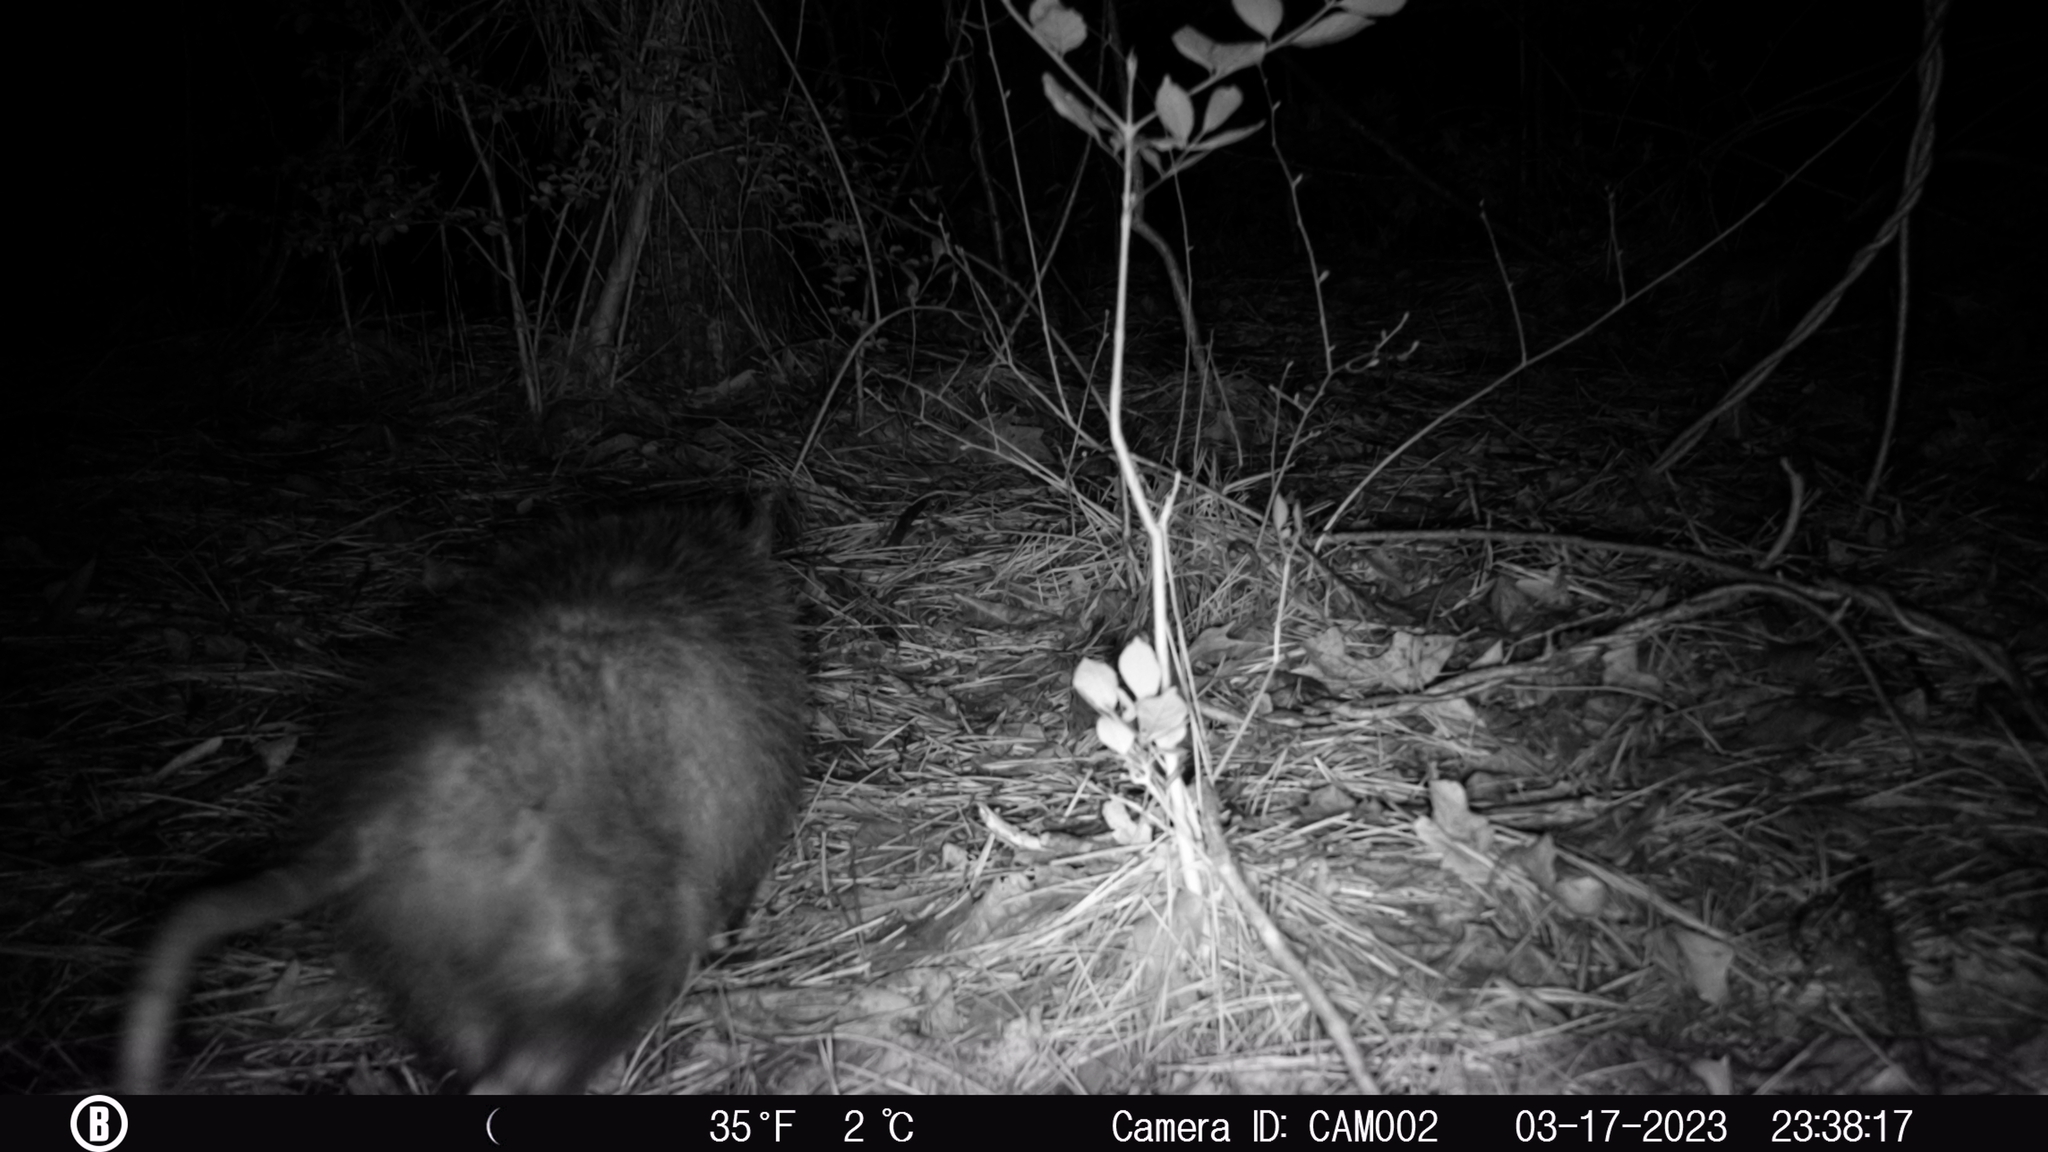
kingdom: Animalia
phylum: Chordata
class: Mammalia
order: Didelphimorphia
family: Didelphidae
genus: Didelphis
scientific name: Didelphis virginiana
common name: Virginia opossum
